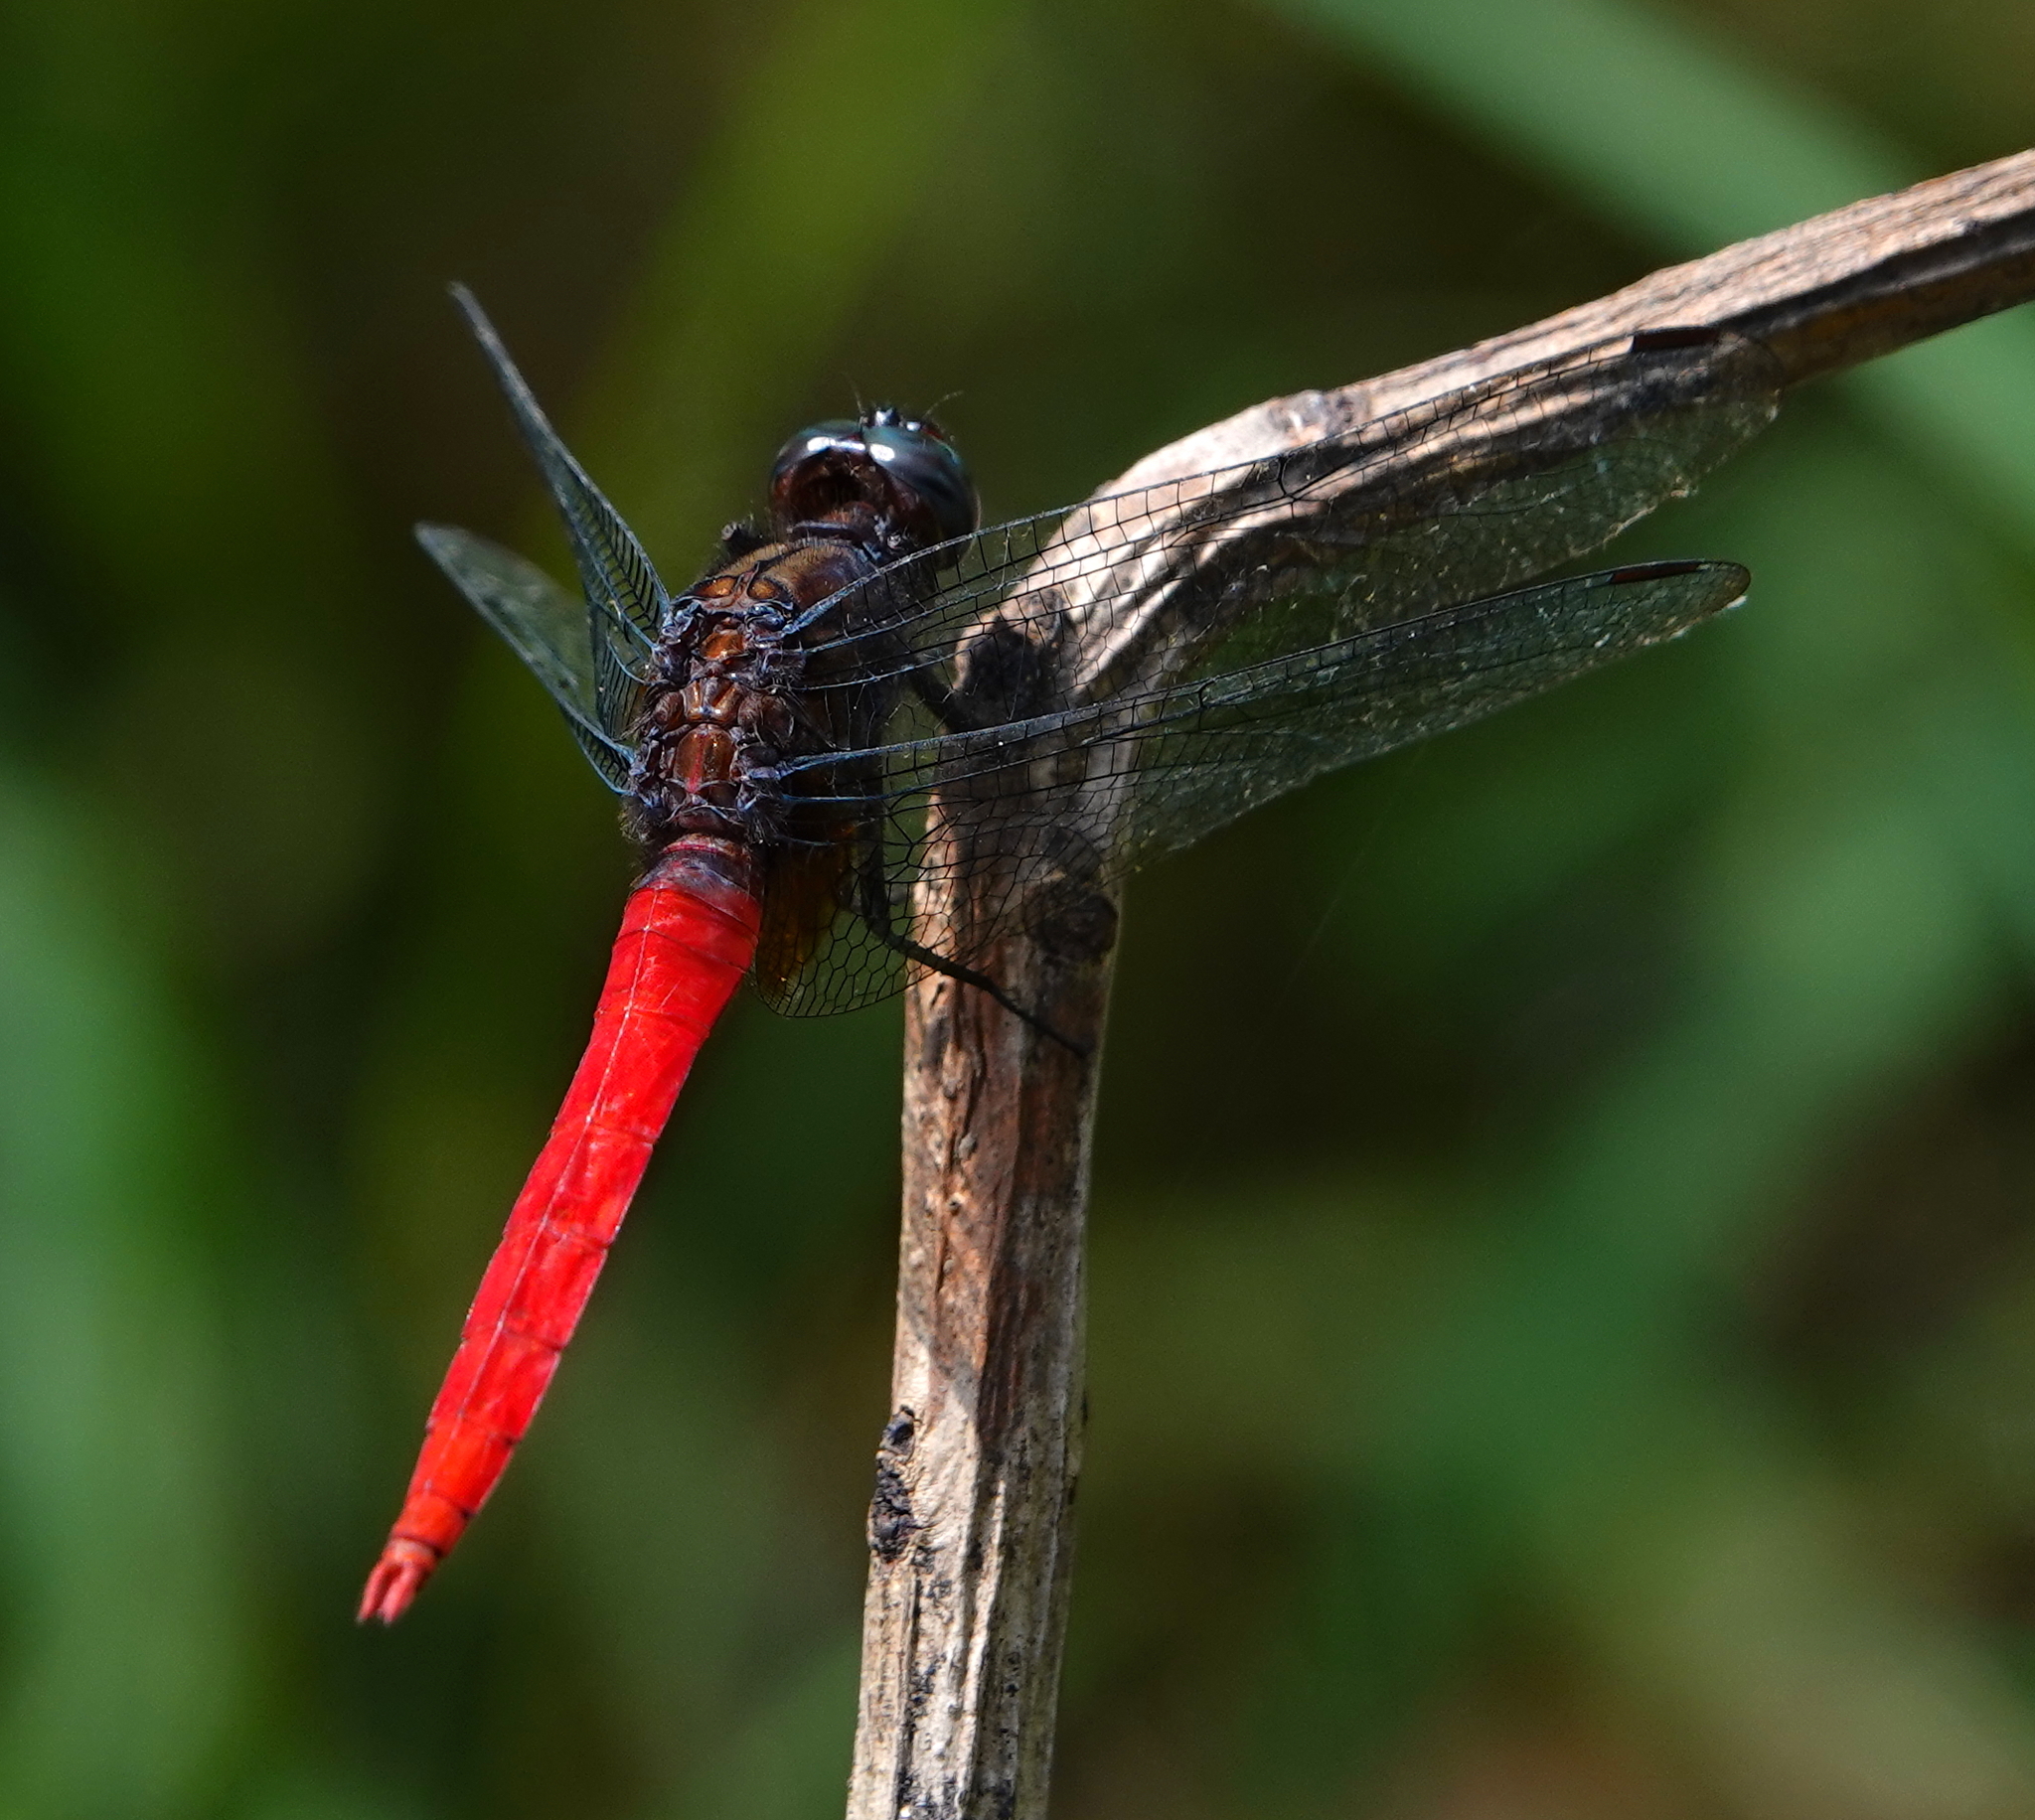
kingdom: Animalia
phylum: Arthropoda
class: Insecta
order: Odonata
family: Libellulidae
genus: Orthetrum
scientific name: Orthetrum chrysis
